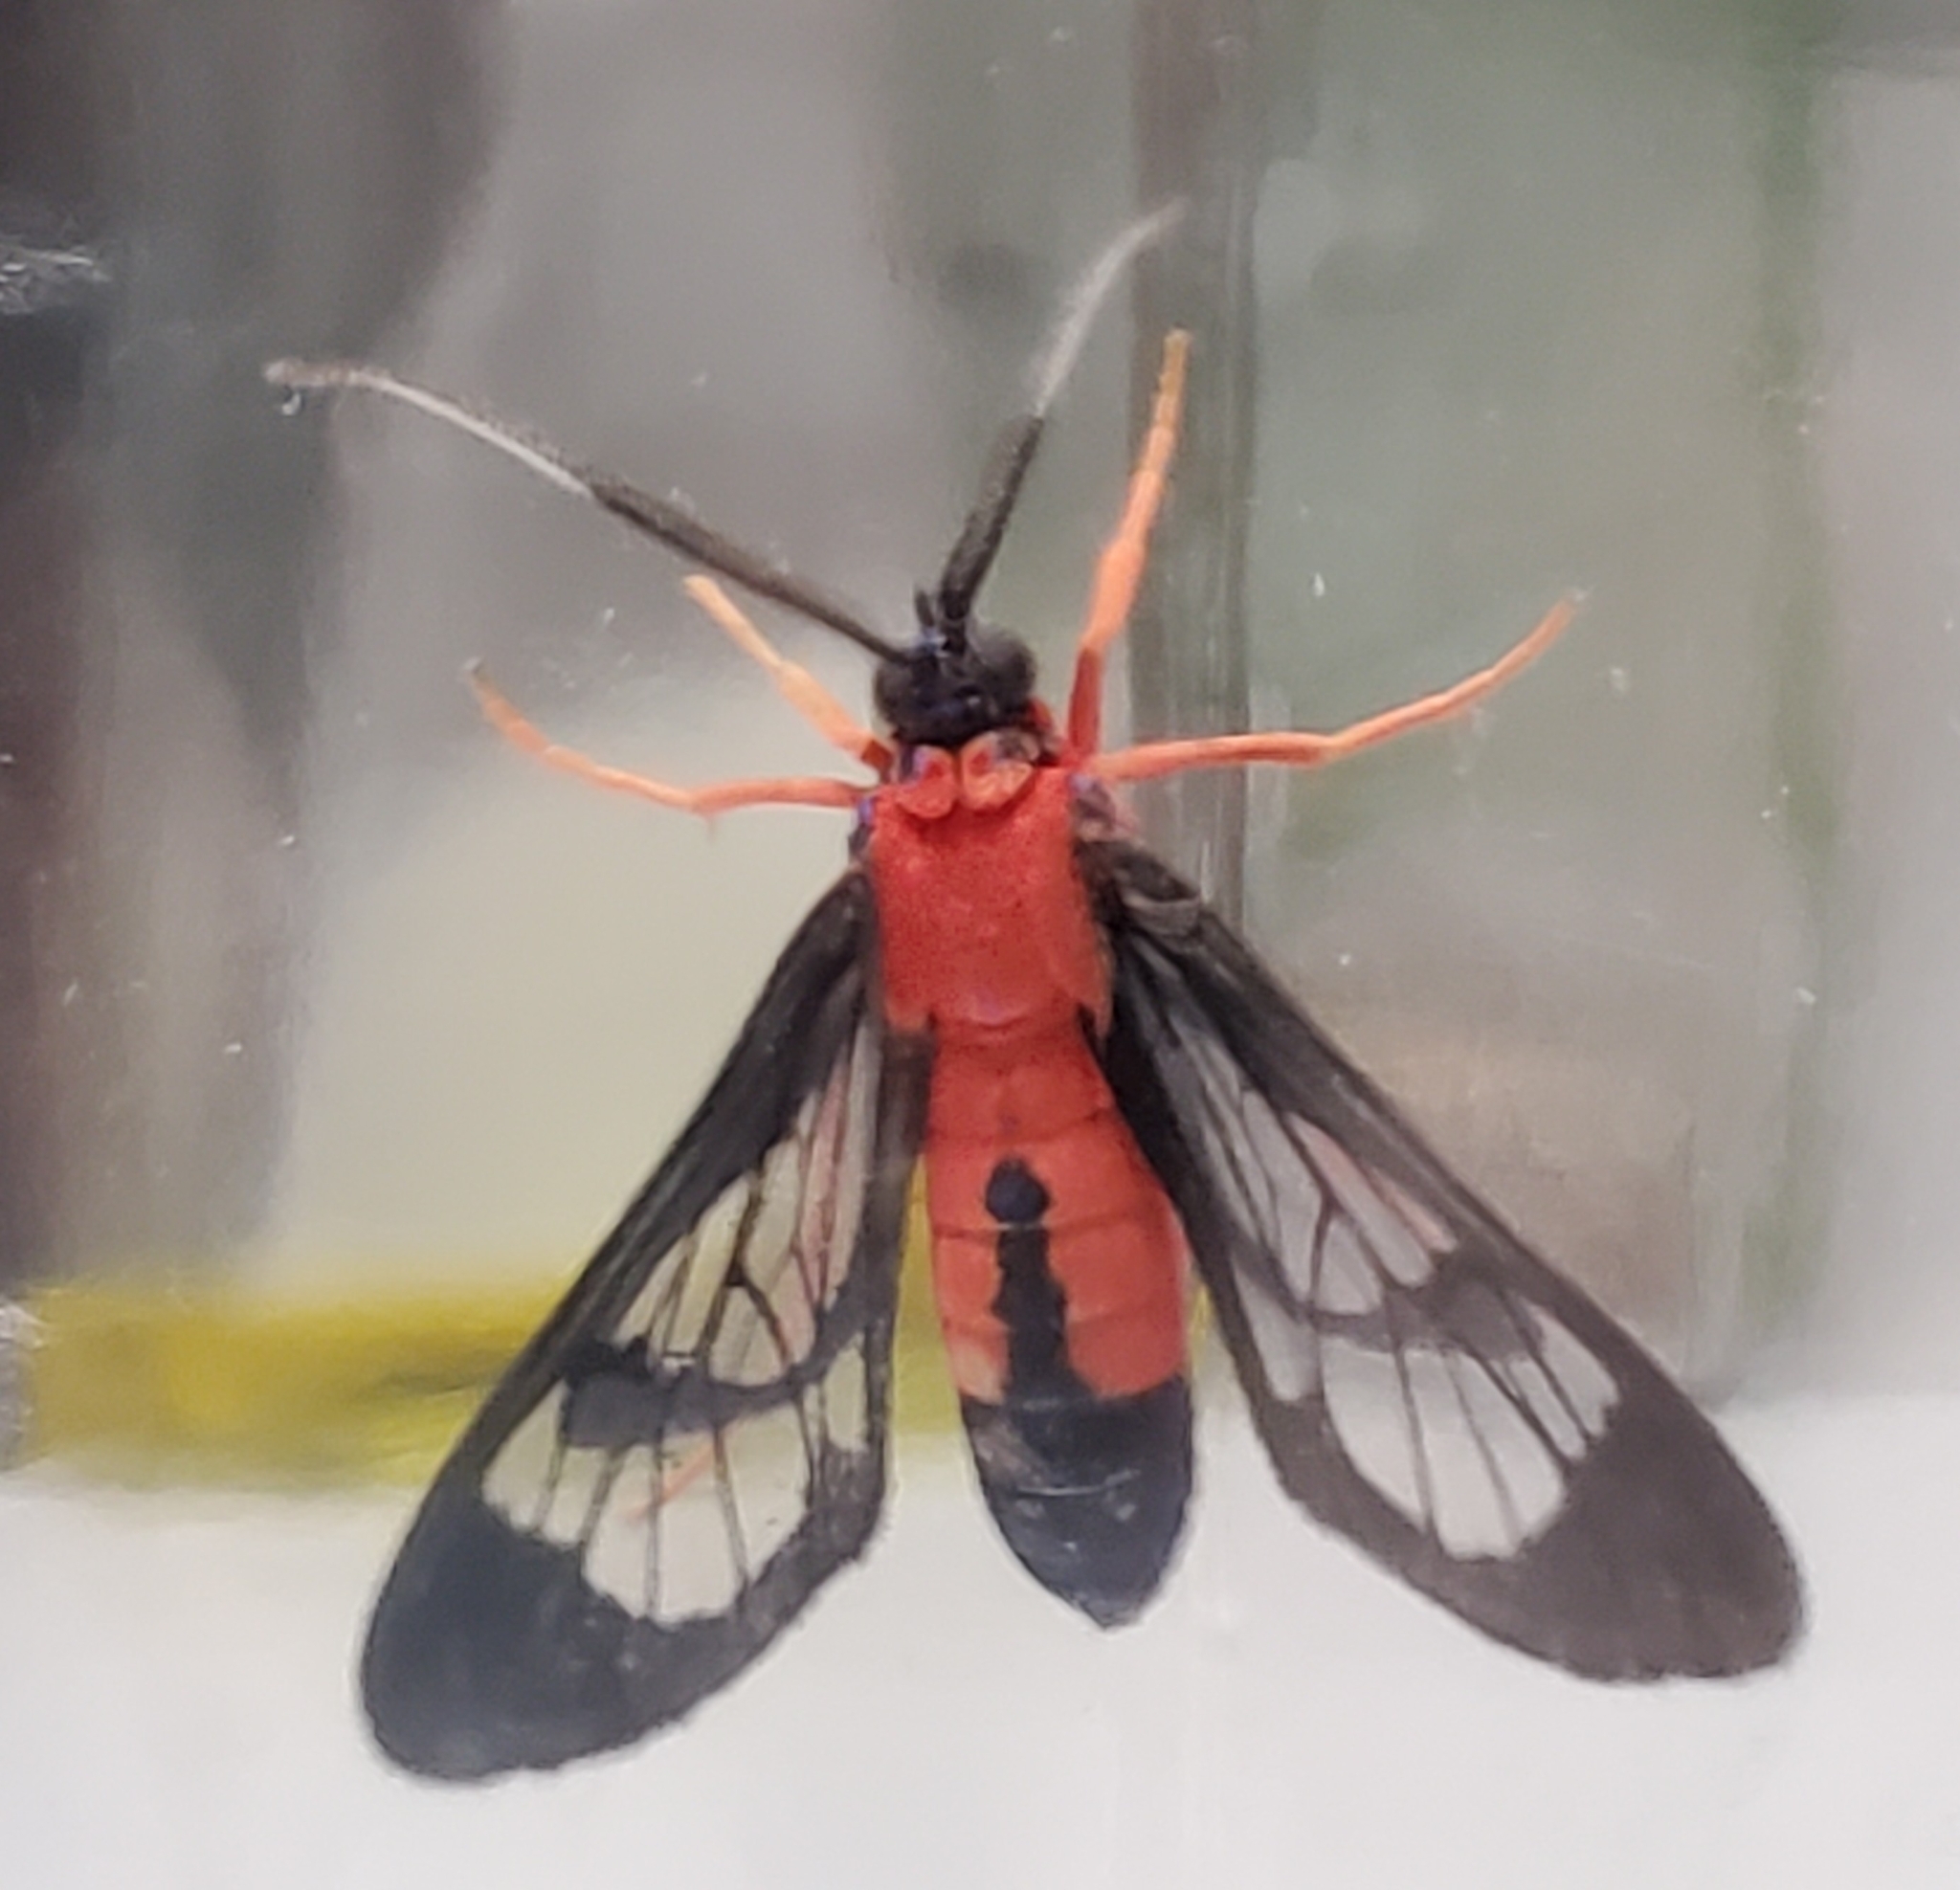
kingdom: Animalia
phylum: Arthropoda
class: Insecta
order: Lepidoptera
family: Erebidae
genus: Cosmosoma
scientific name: Cosmosoma myrodora
